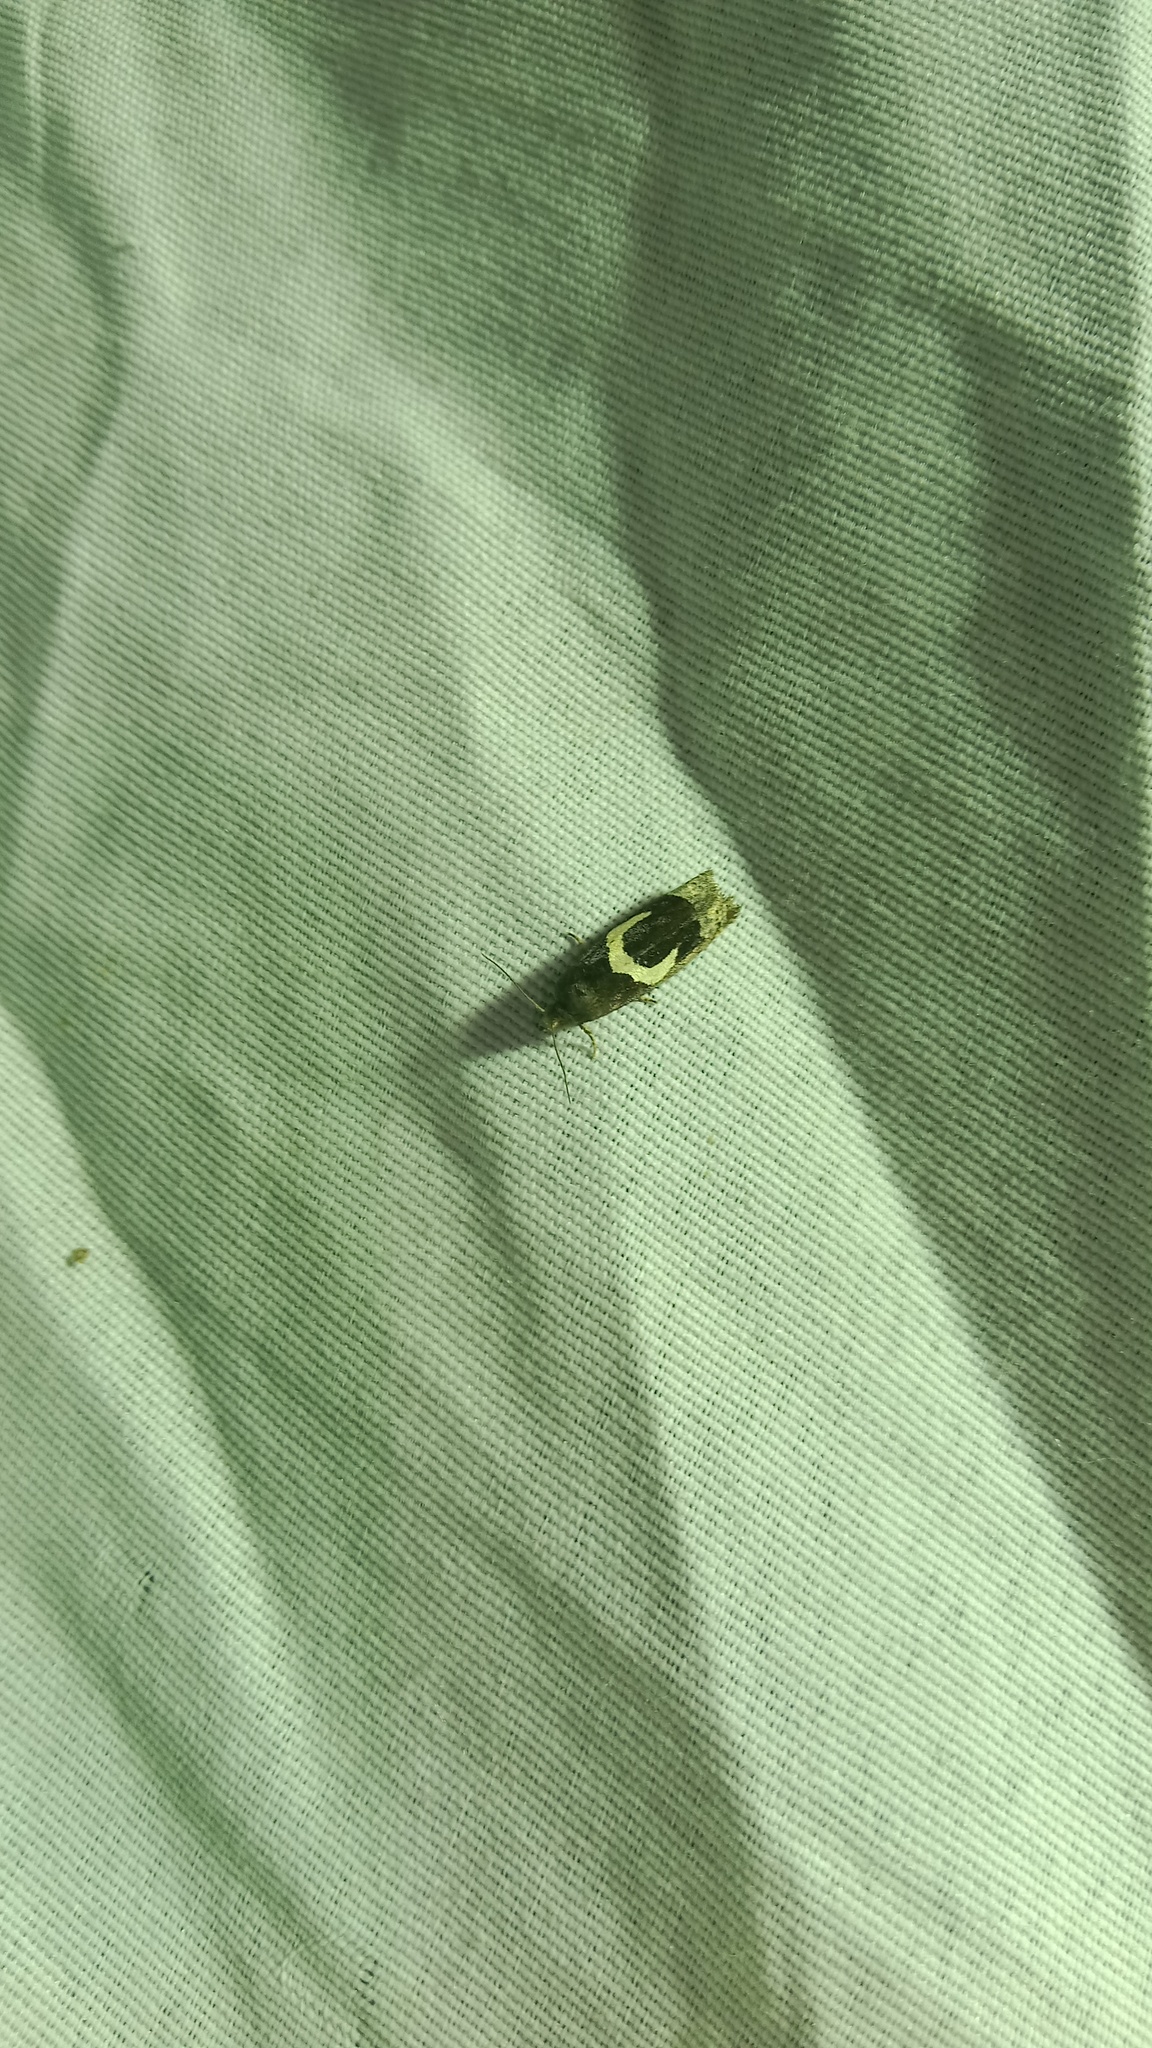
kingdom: Animalia
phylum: Arthropoda
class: Insecta
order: Lepidoptera
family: Tortricidae
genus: Epiblema
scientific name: Epiblema foenella
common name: White-foot bell
